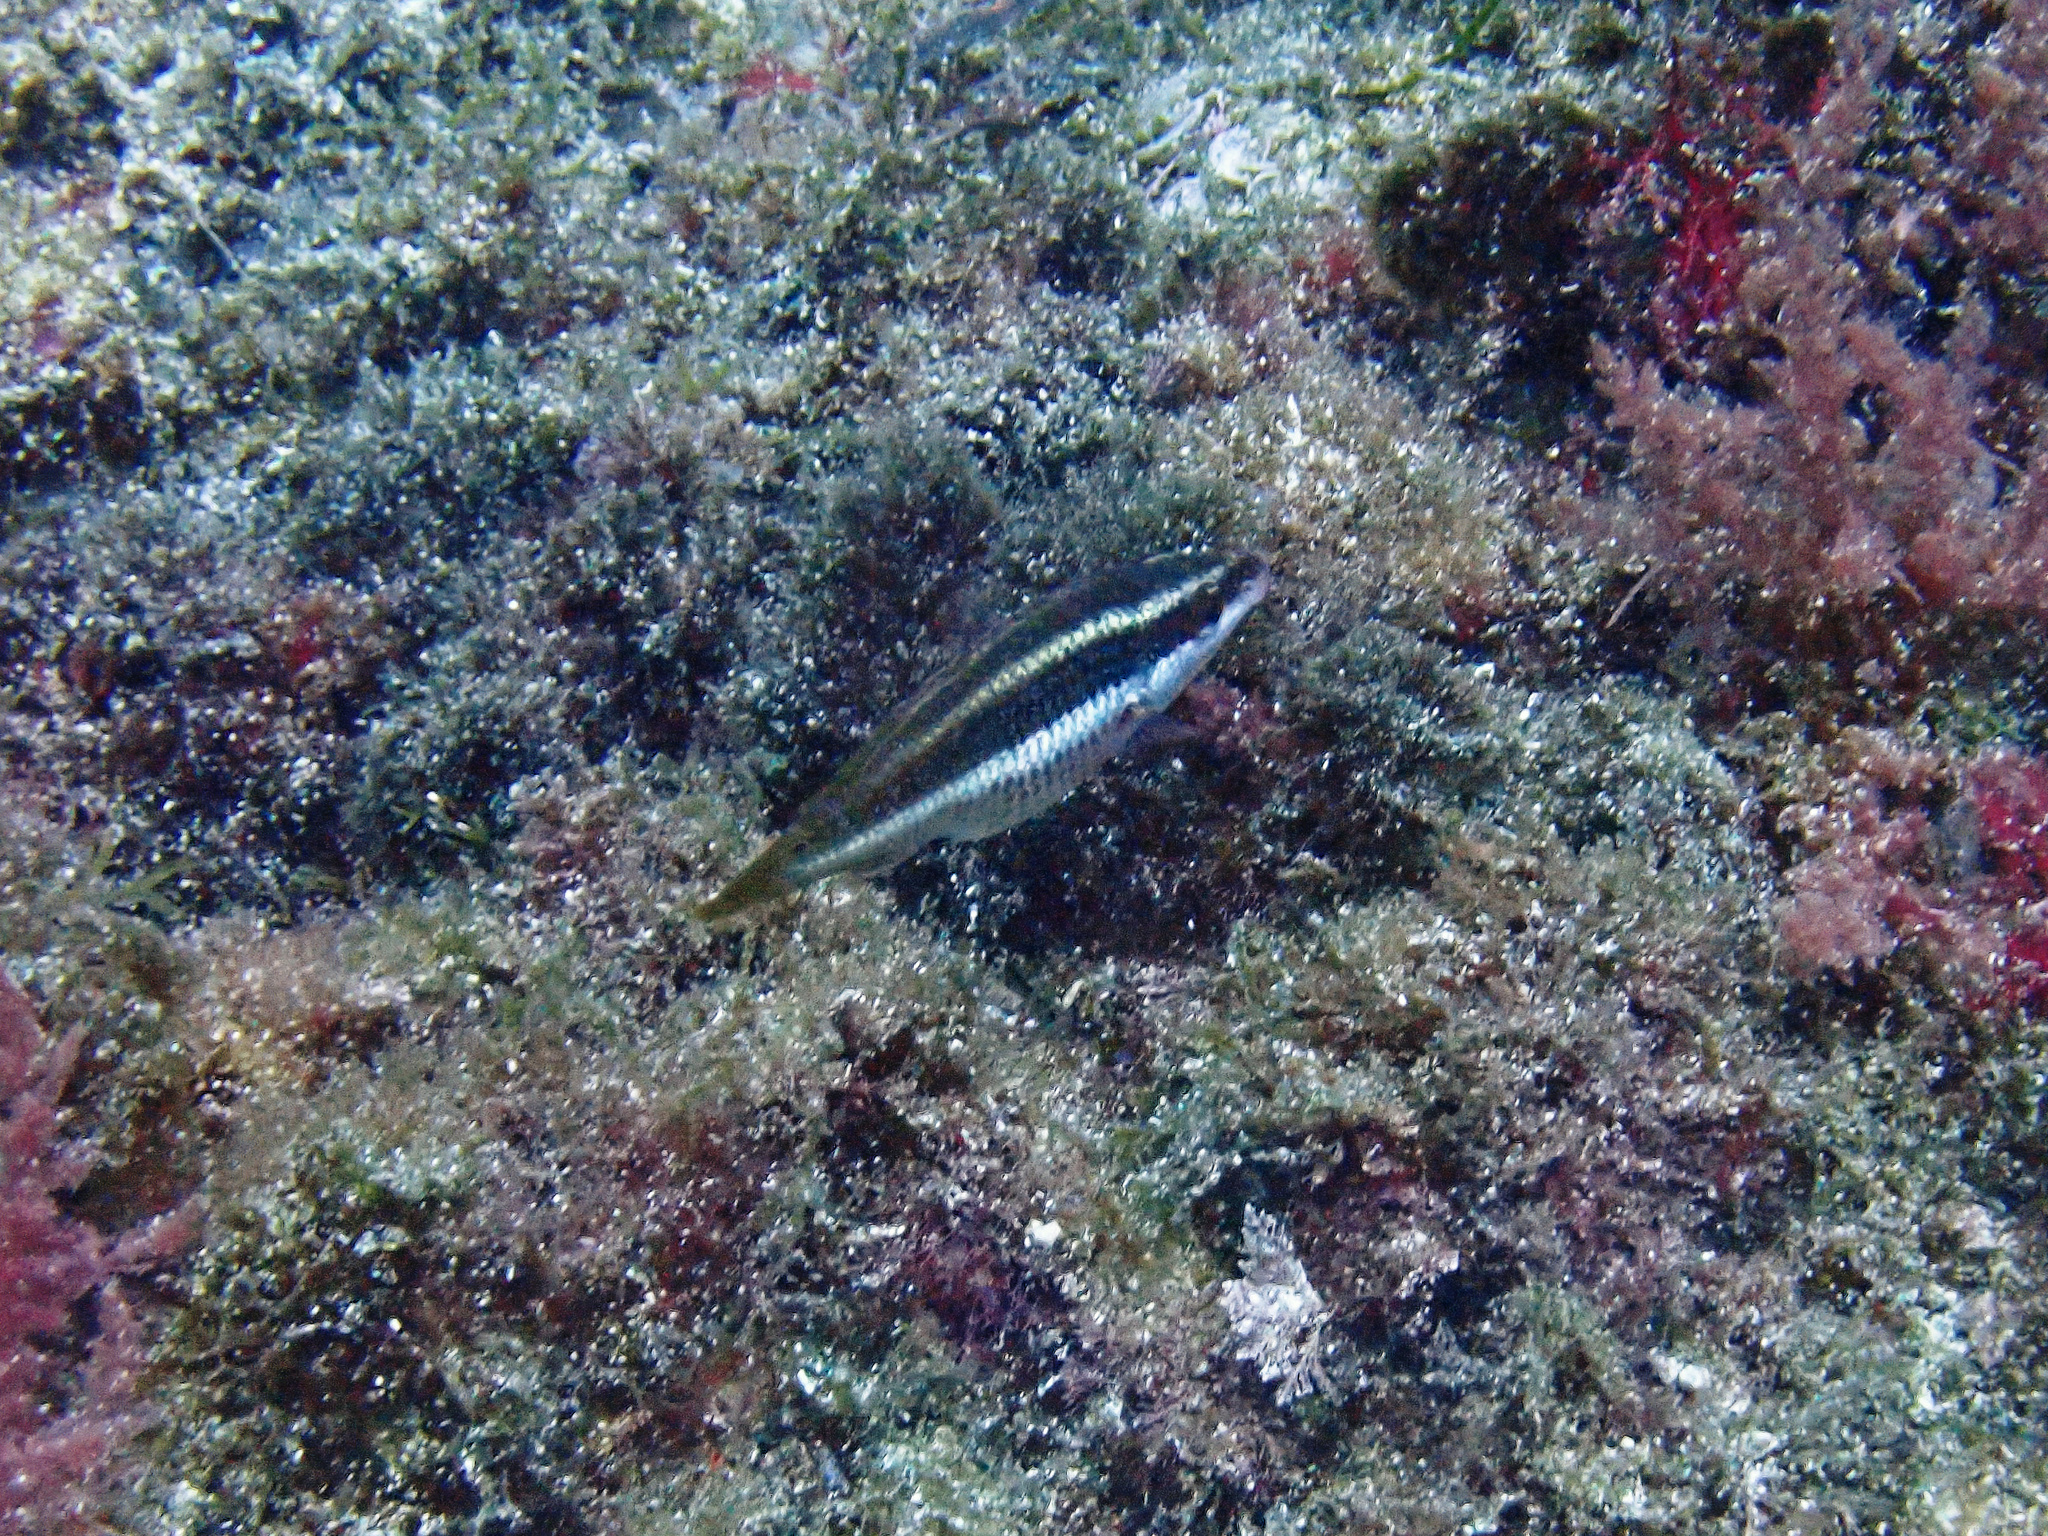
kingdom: Animalia
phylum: Chordata
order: Perciformes
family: Labridae
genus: Symphodus
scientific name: Symphodus doderleini
